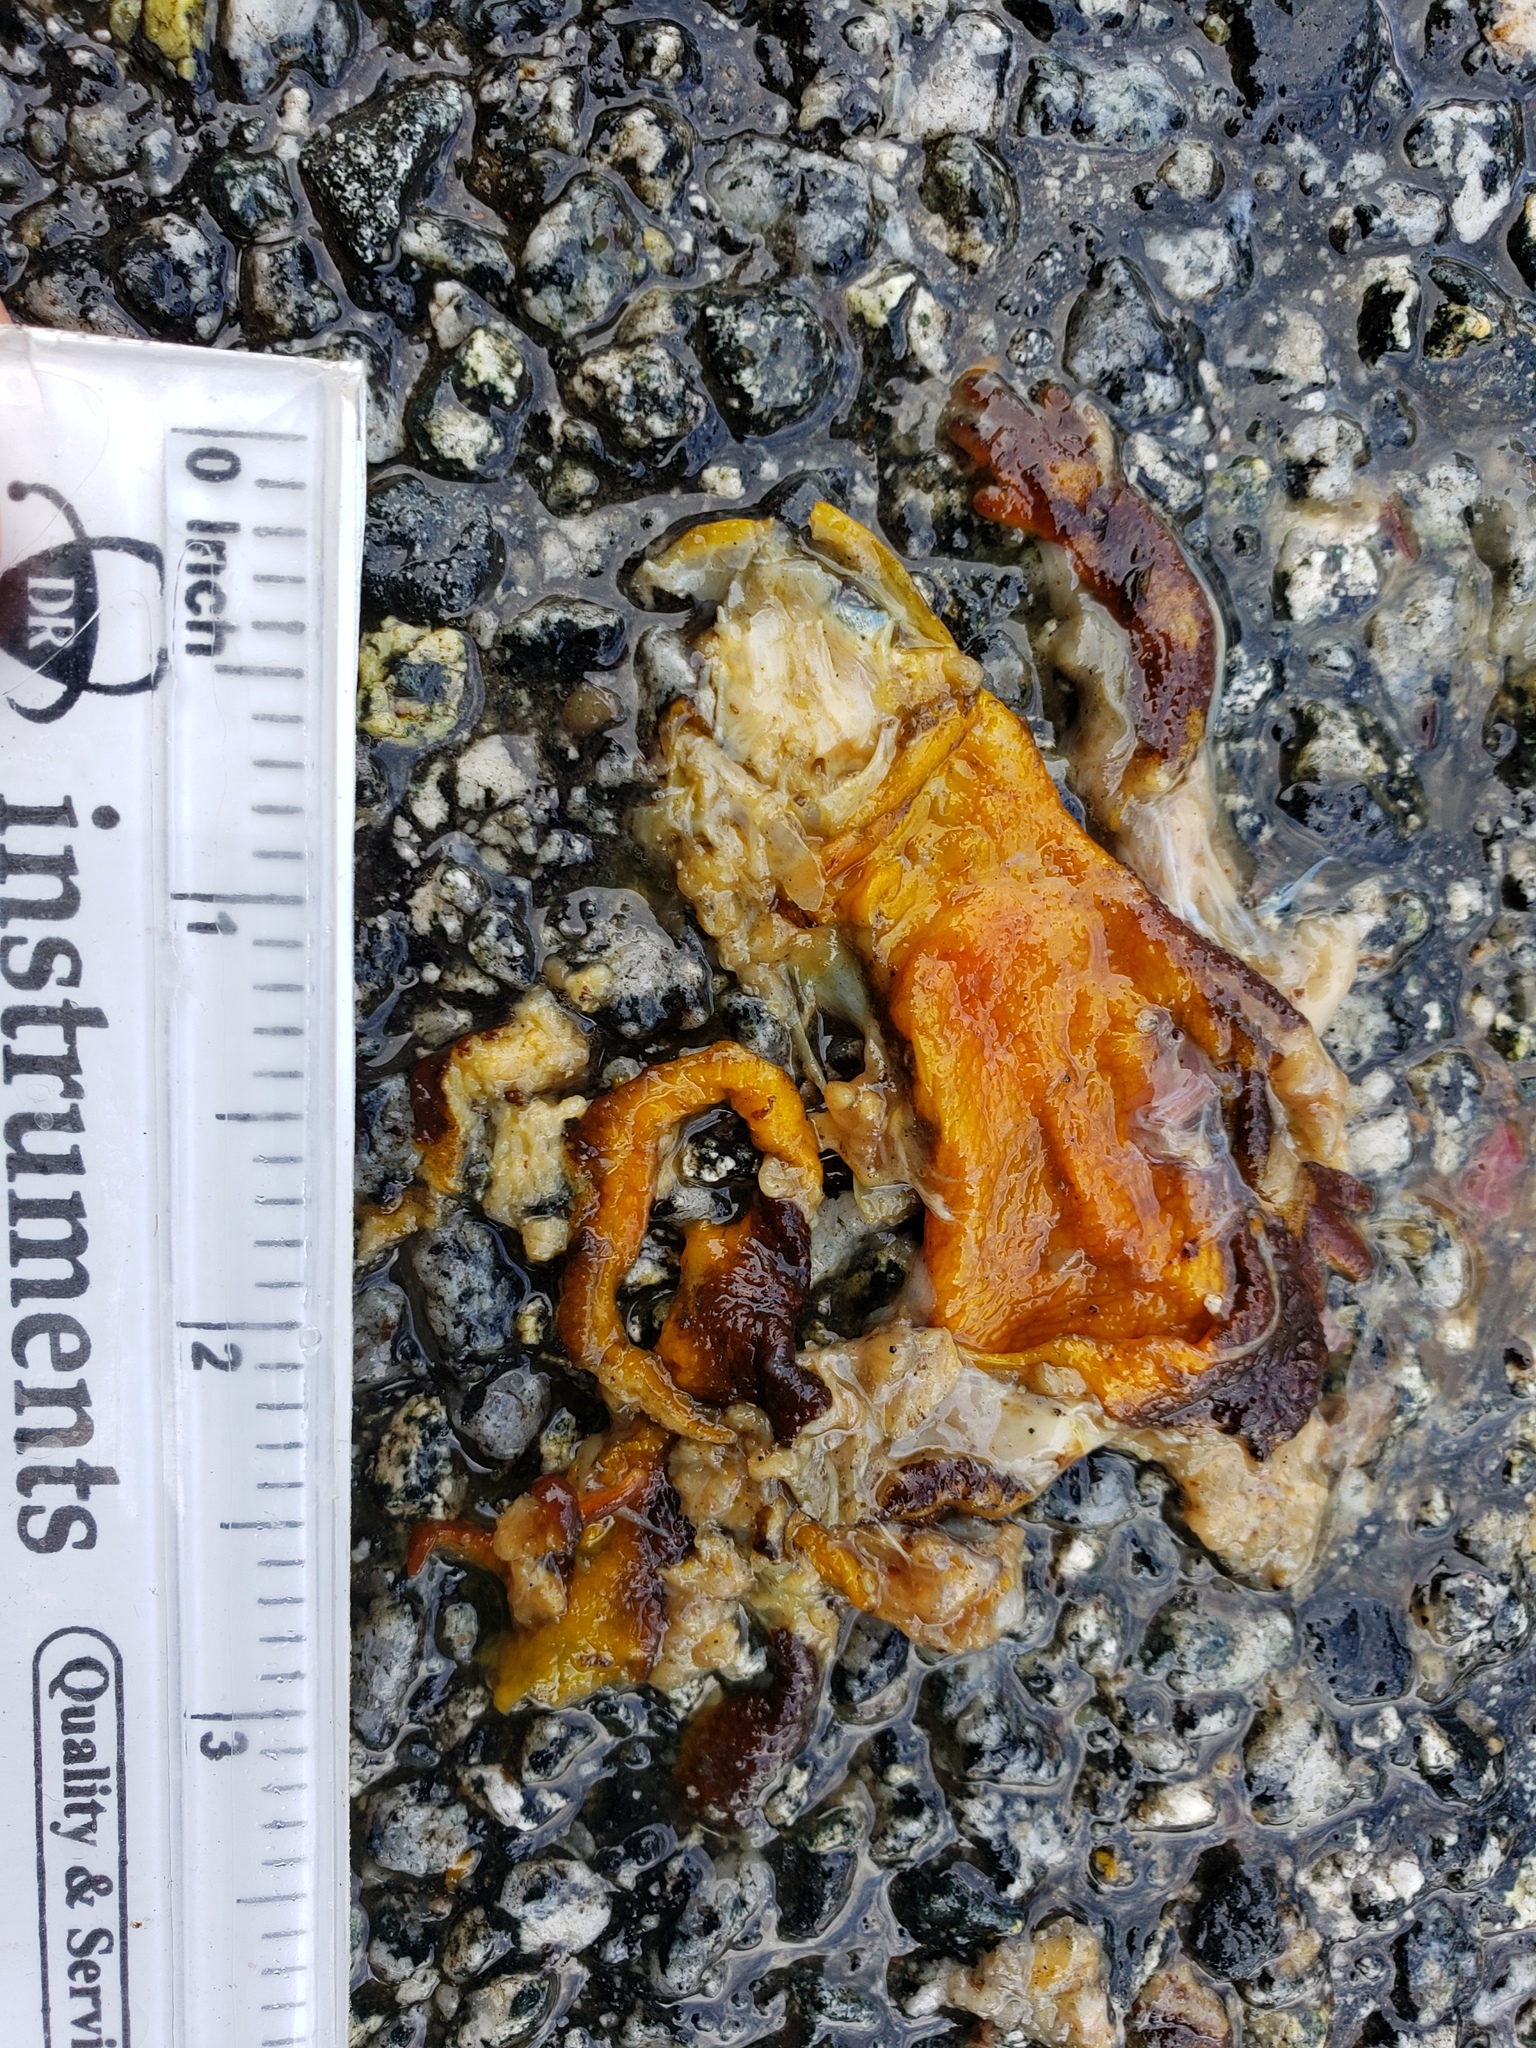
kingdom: Animalia
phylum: Chordata
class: Amphibia
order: Caudata
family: Salamandridae
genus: Taricha
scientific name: Taricha
